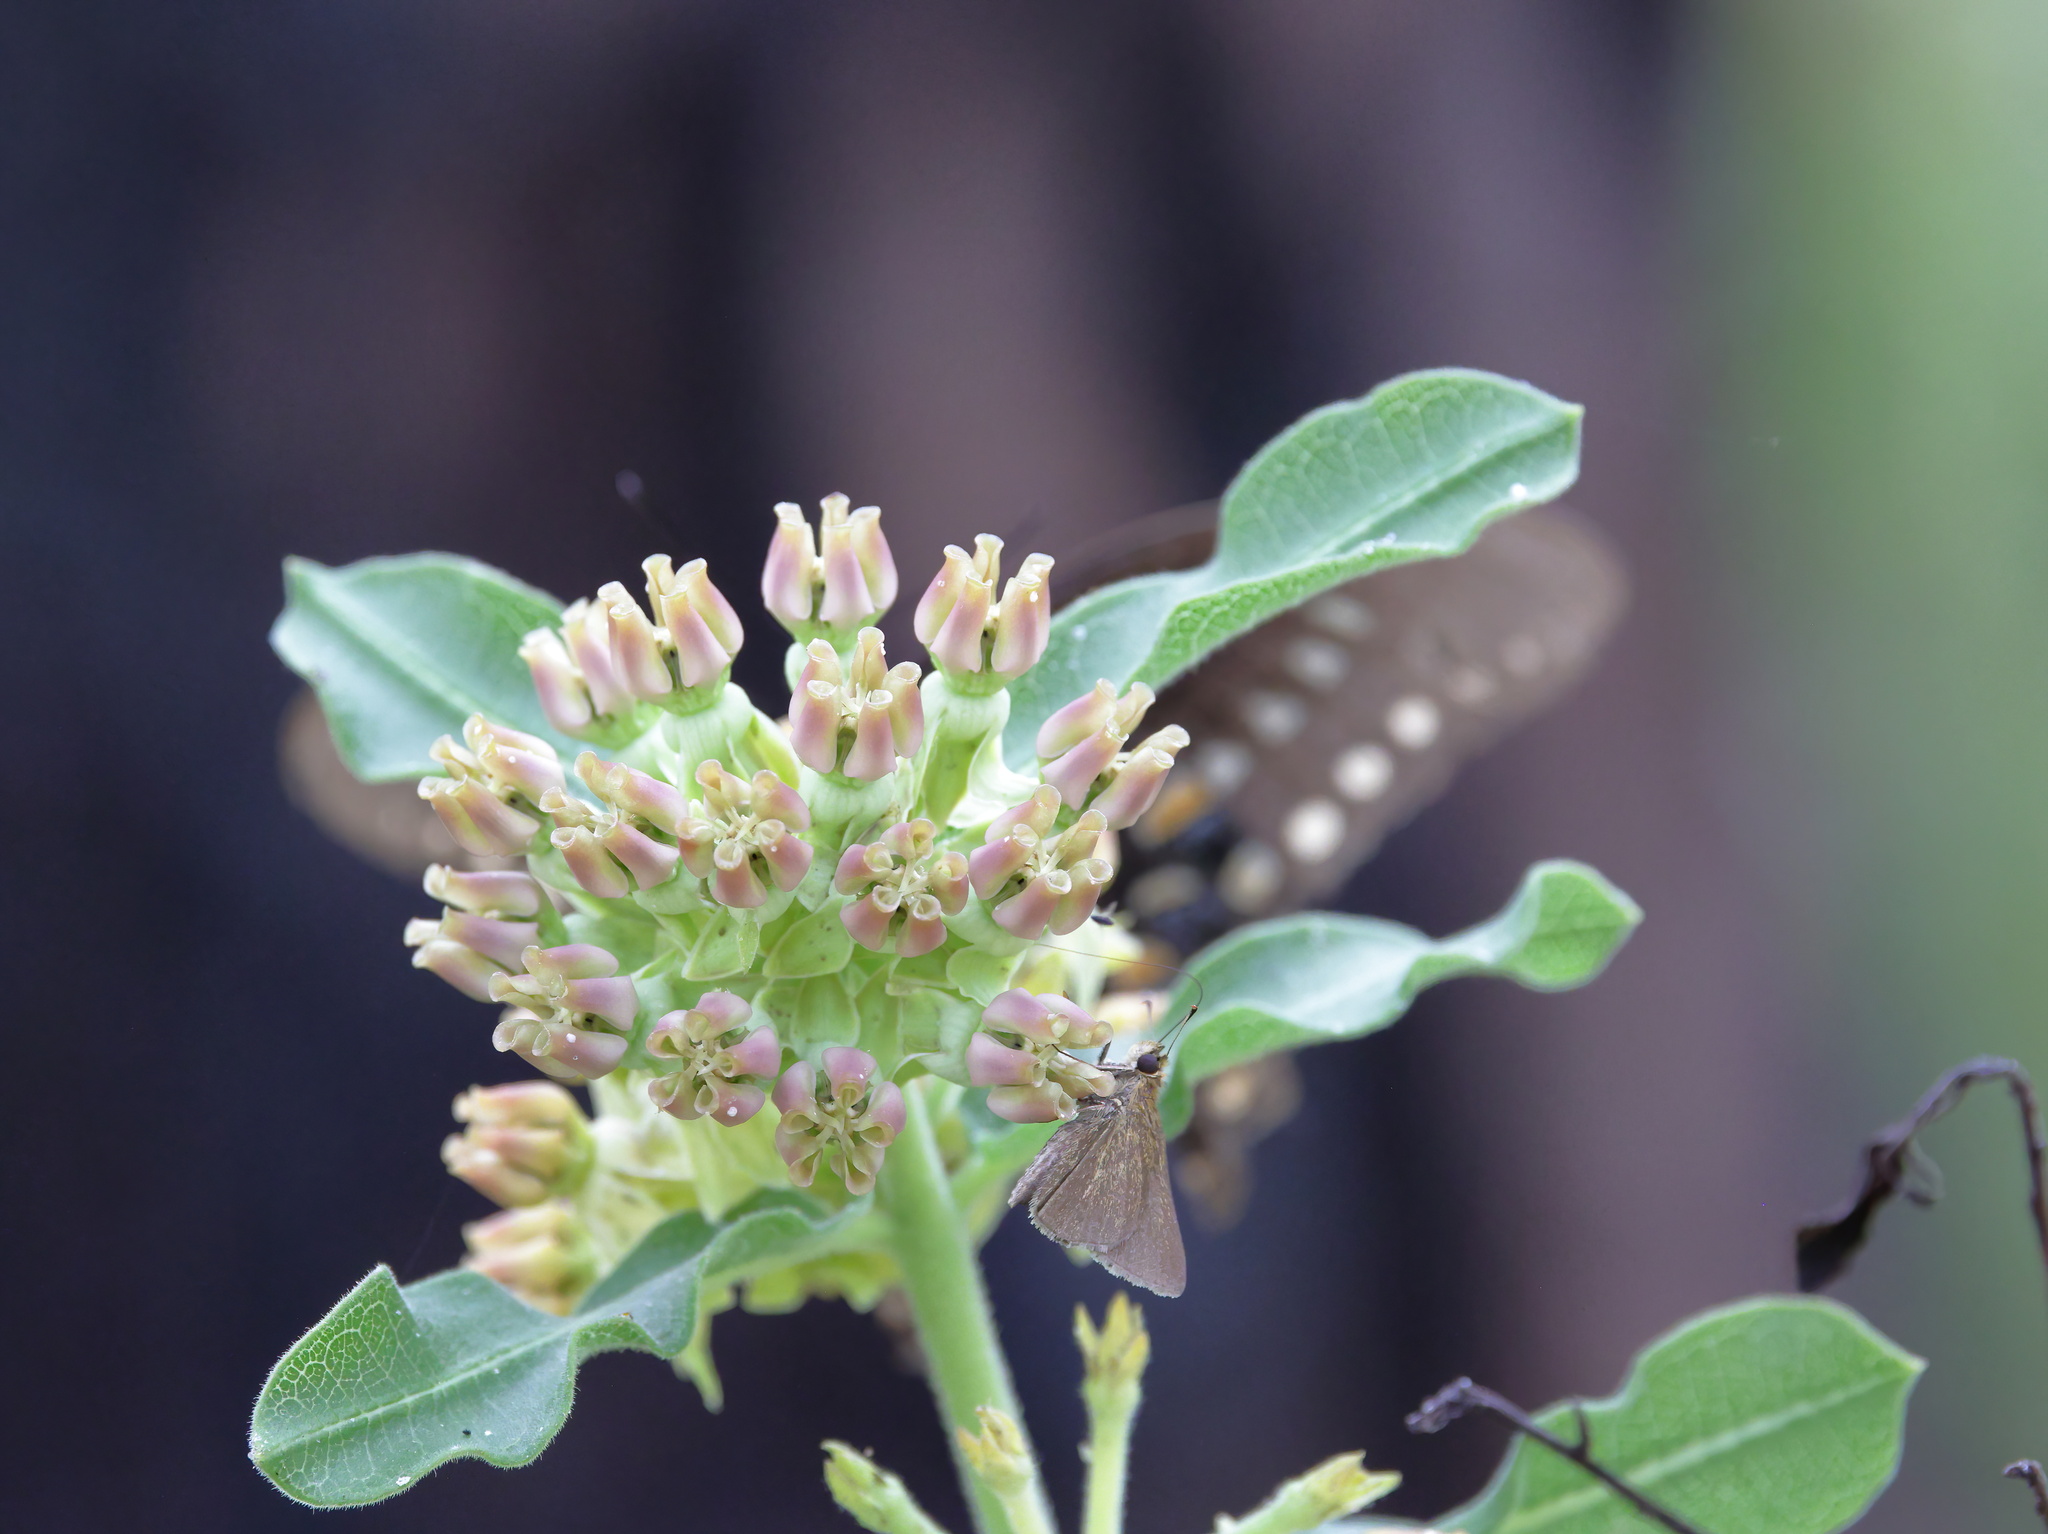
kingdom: Plantae
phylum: Tracheophyta
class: Magnoliopsida
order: Gentianales
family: Apocynaceae
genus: Asclepias
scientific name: Asclepias obovata
